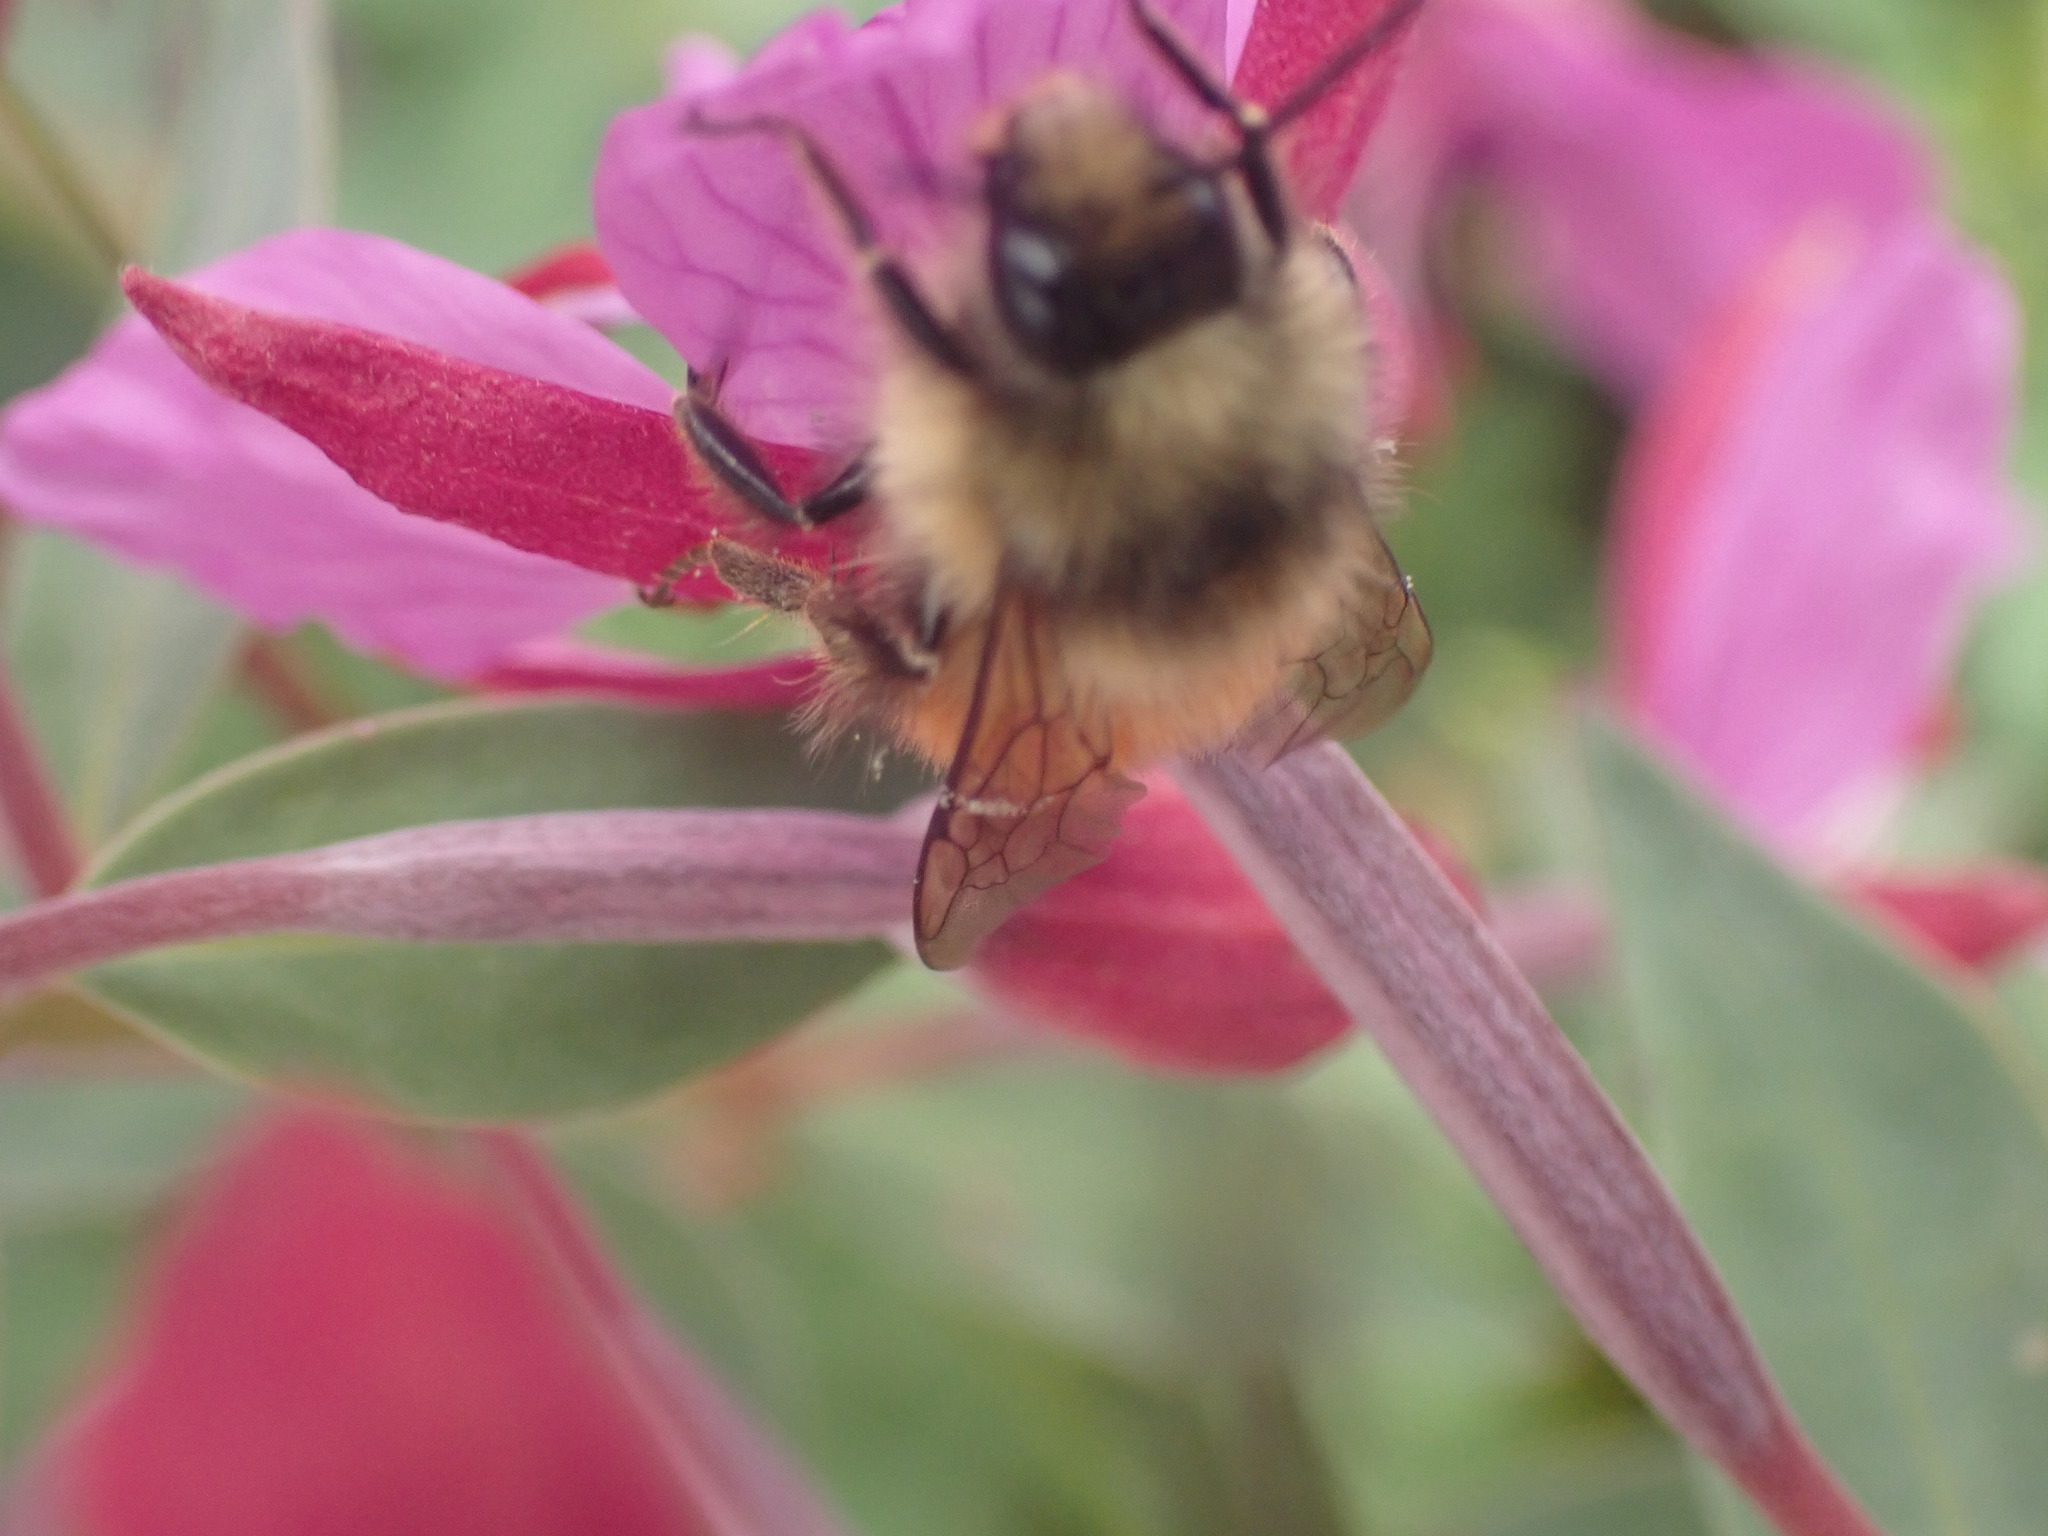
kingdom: Animalia
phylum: Arthropoda
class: Insecta
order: Hymenoptera
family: Apidae
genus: Bombus
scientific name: Bombus melanopygus
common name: Black tail bumble bee
